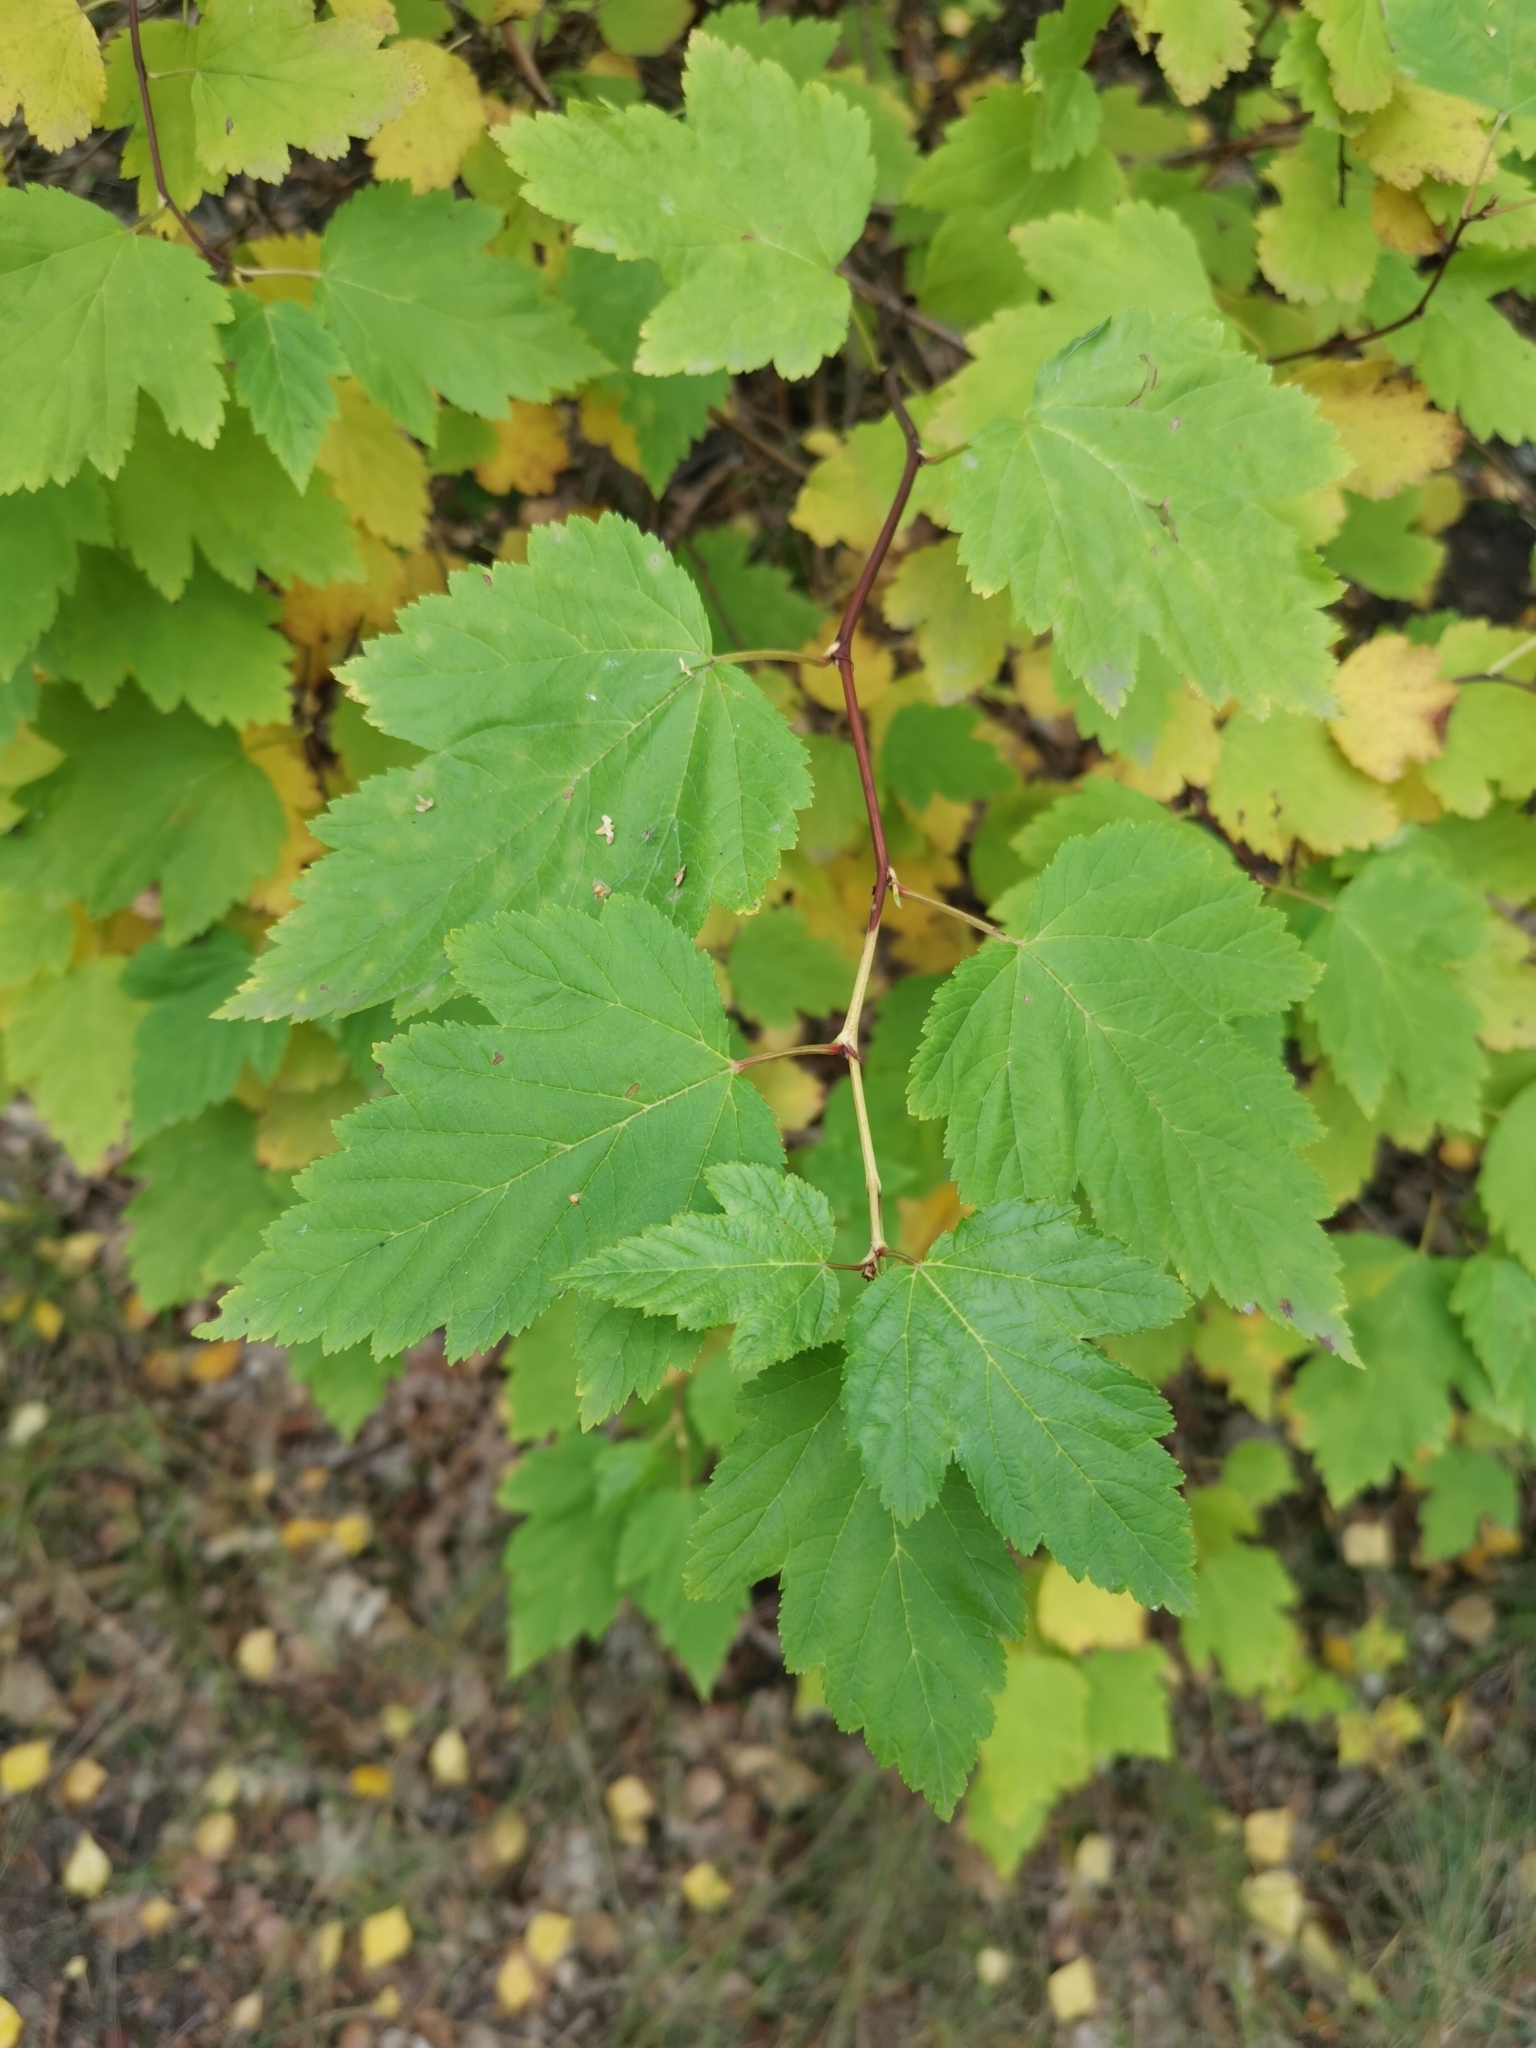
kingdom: Plantae
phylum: Tracheophyta
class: Magnoliopsida
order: Rosales
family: Rosaceae
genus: Physocarpus
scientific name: Physocarpus opulifolius
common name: Ninebark
